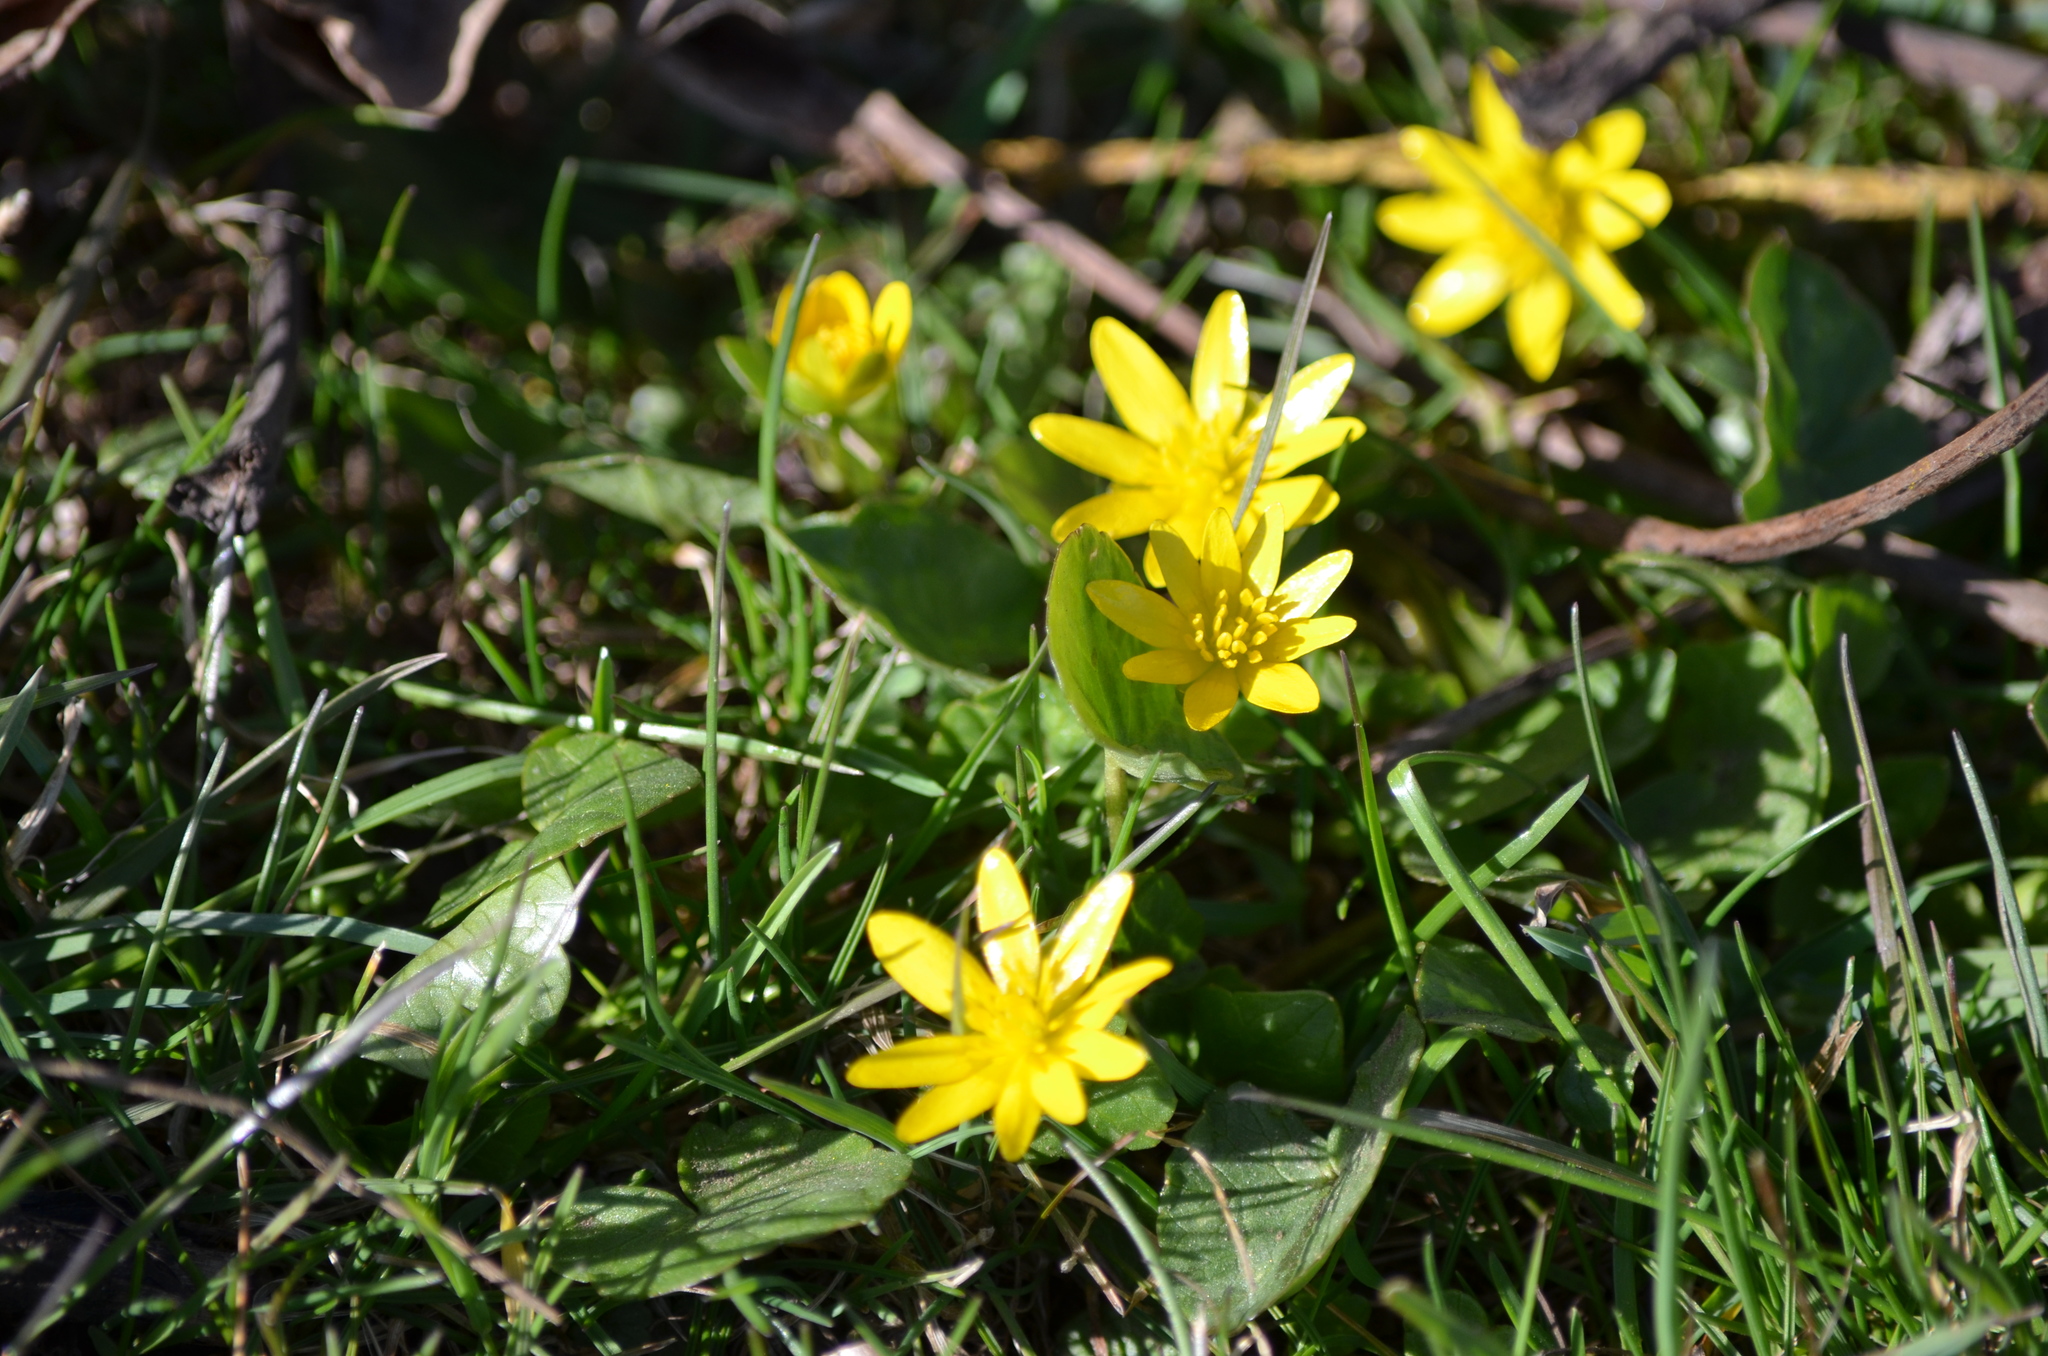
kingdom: Plantae
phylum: Tracheophyta
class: Magnoliopsida
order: Ranunculales
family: Ranunculaceae
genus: Ficaria
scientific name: Ficaria verna
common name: Lesser celandine
